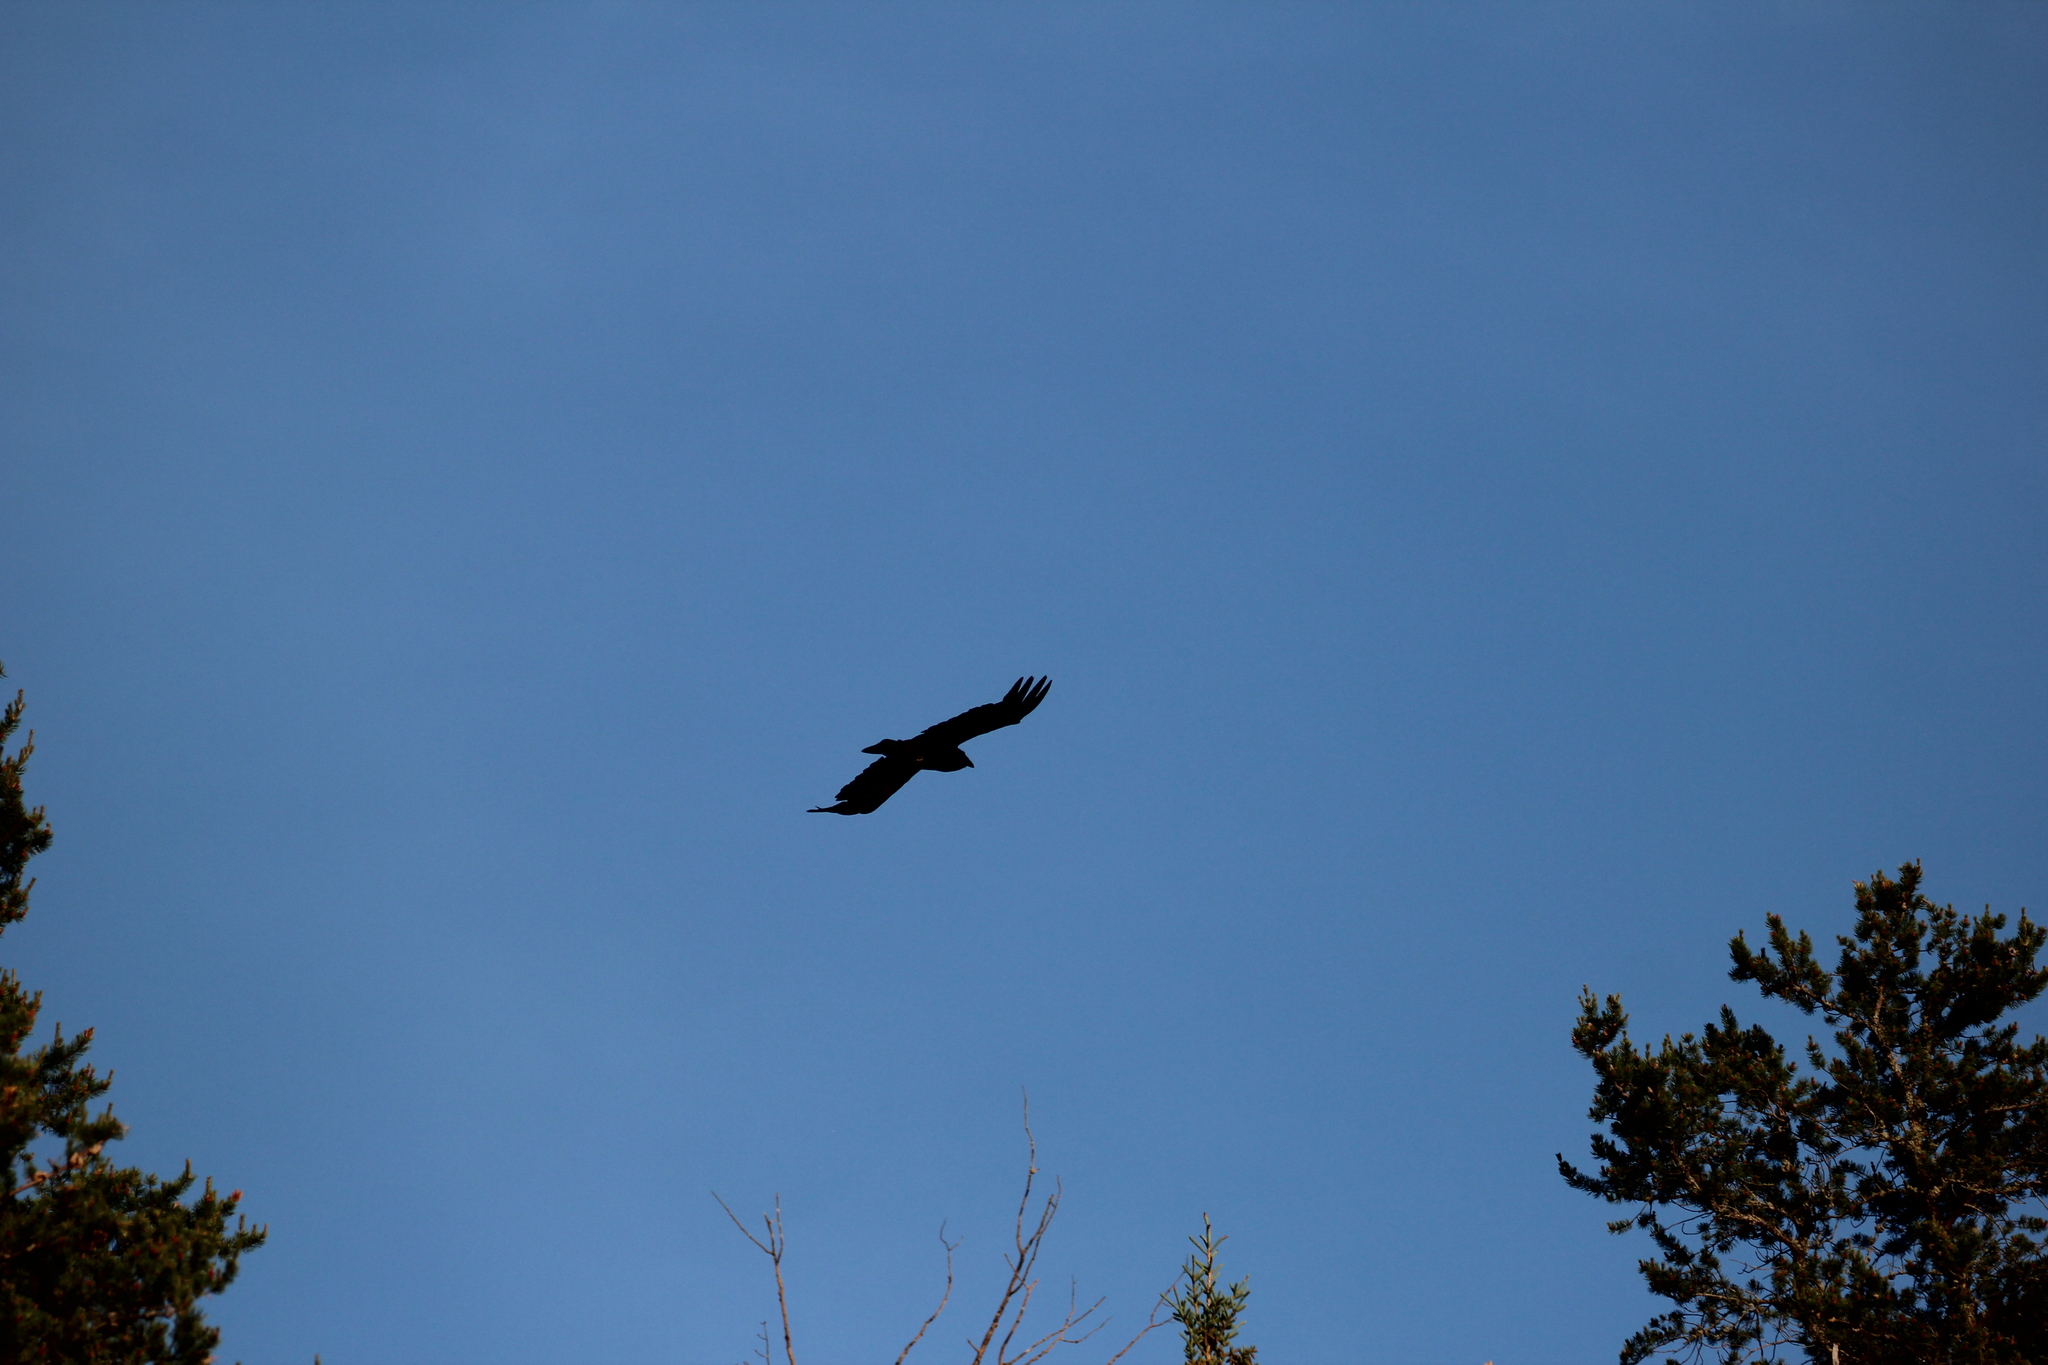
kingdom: Animalia
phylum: Chordata
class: Aves
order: Passeriformes
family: Corvidae
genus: Corvus
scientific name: Corvus corax
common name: Common raven
